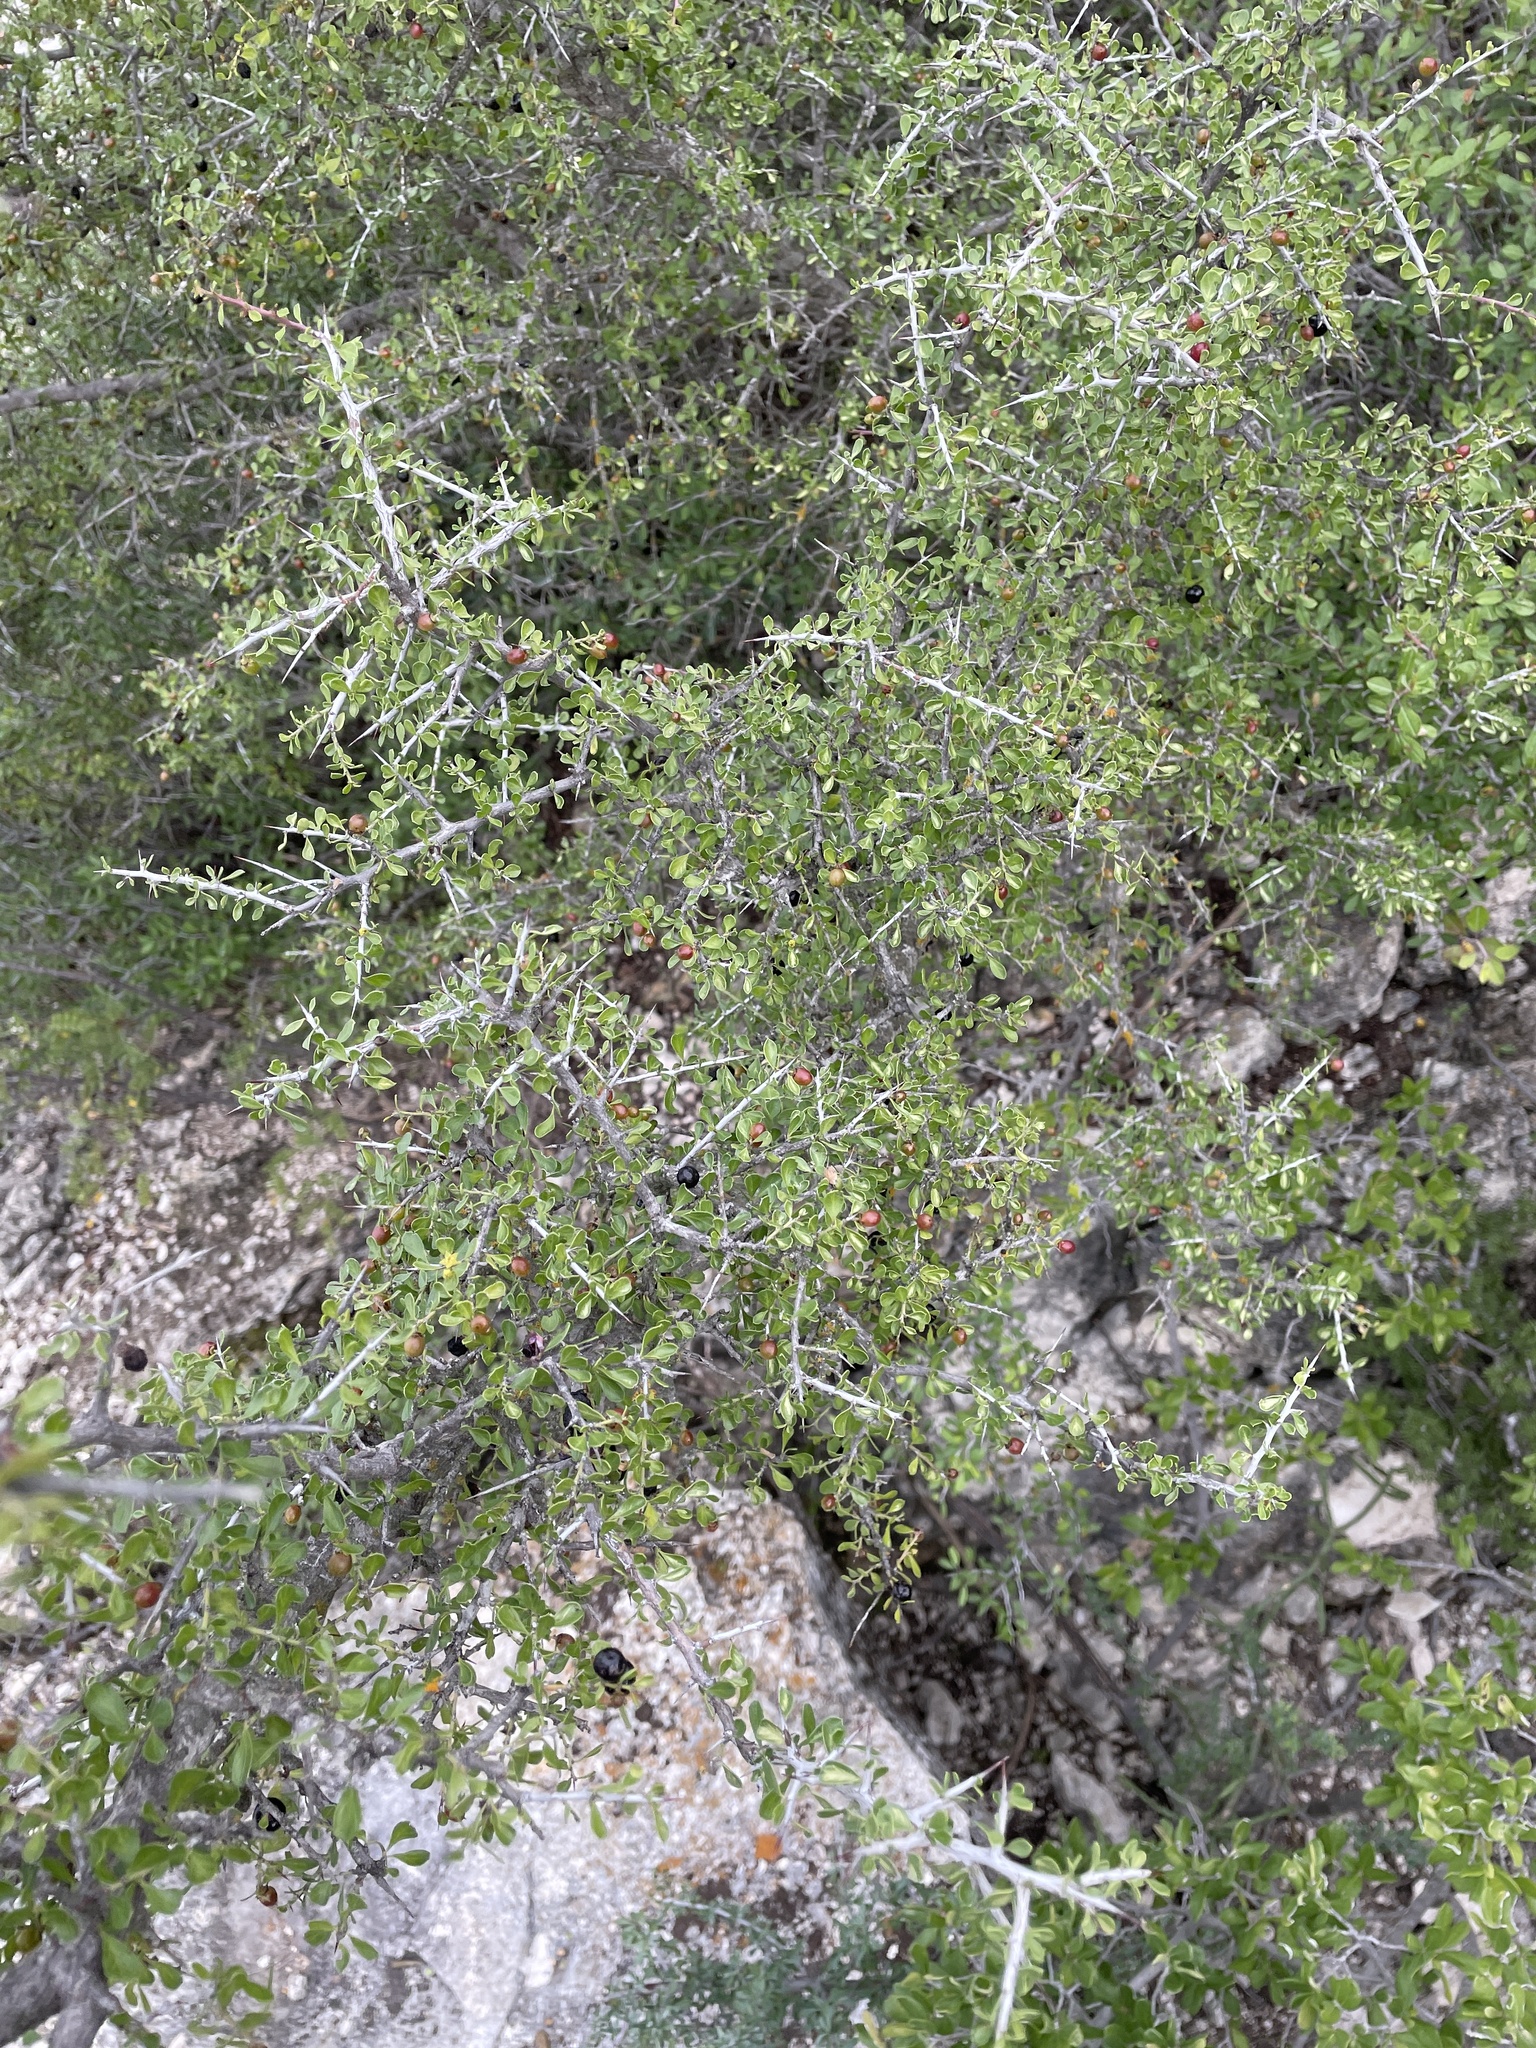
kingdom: Plantae
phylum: Tracheophyta
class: Magnoliopsida
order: Rosales
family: Rhamnaceae
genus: Condalia
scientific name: Condalia viridis
